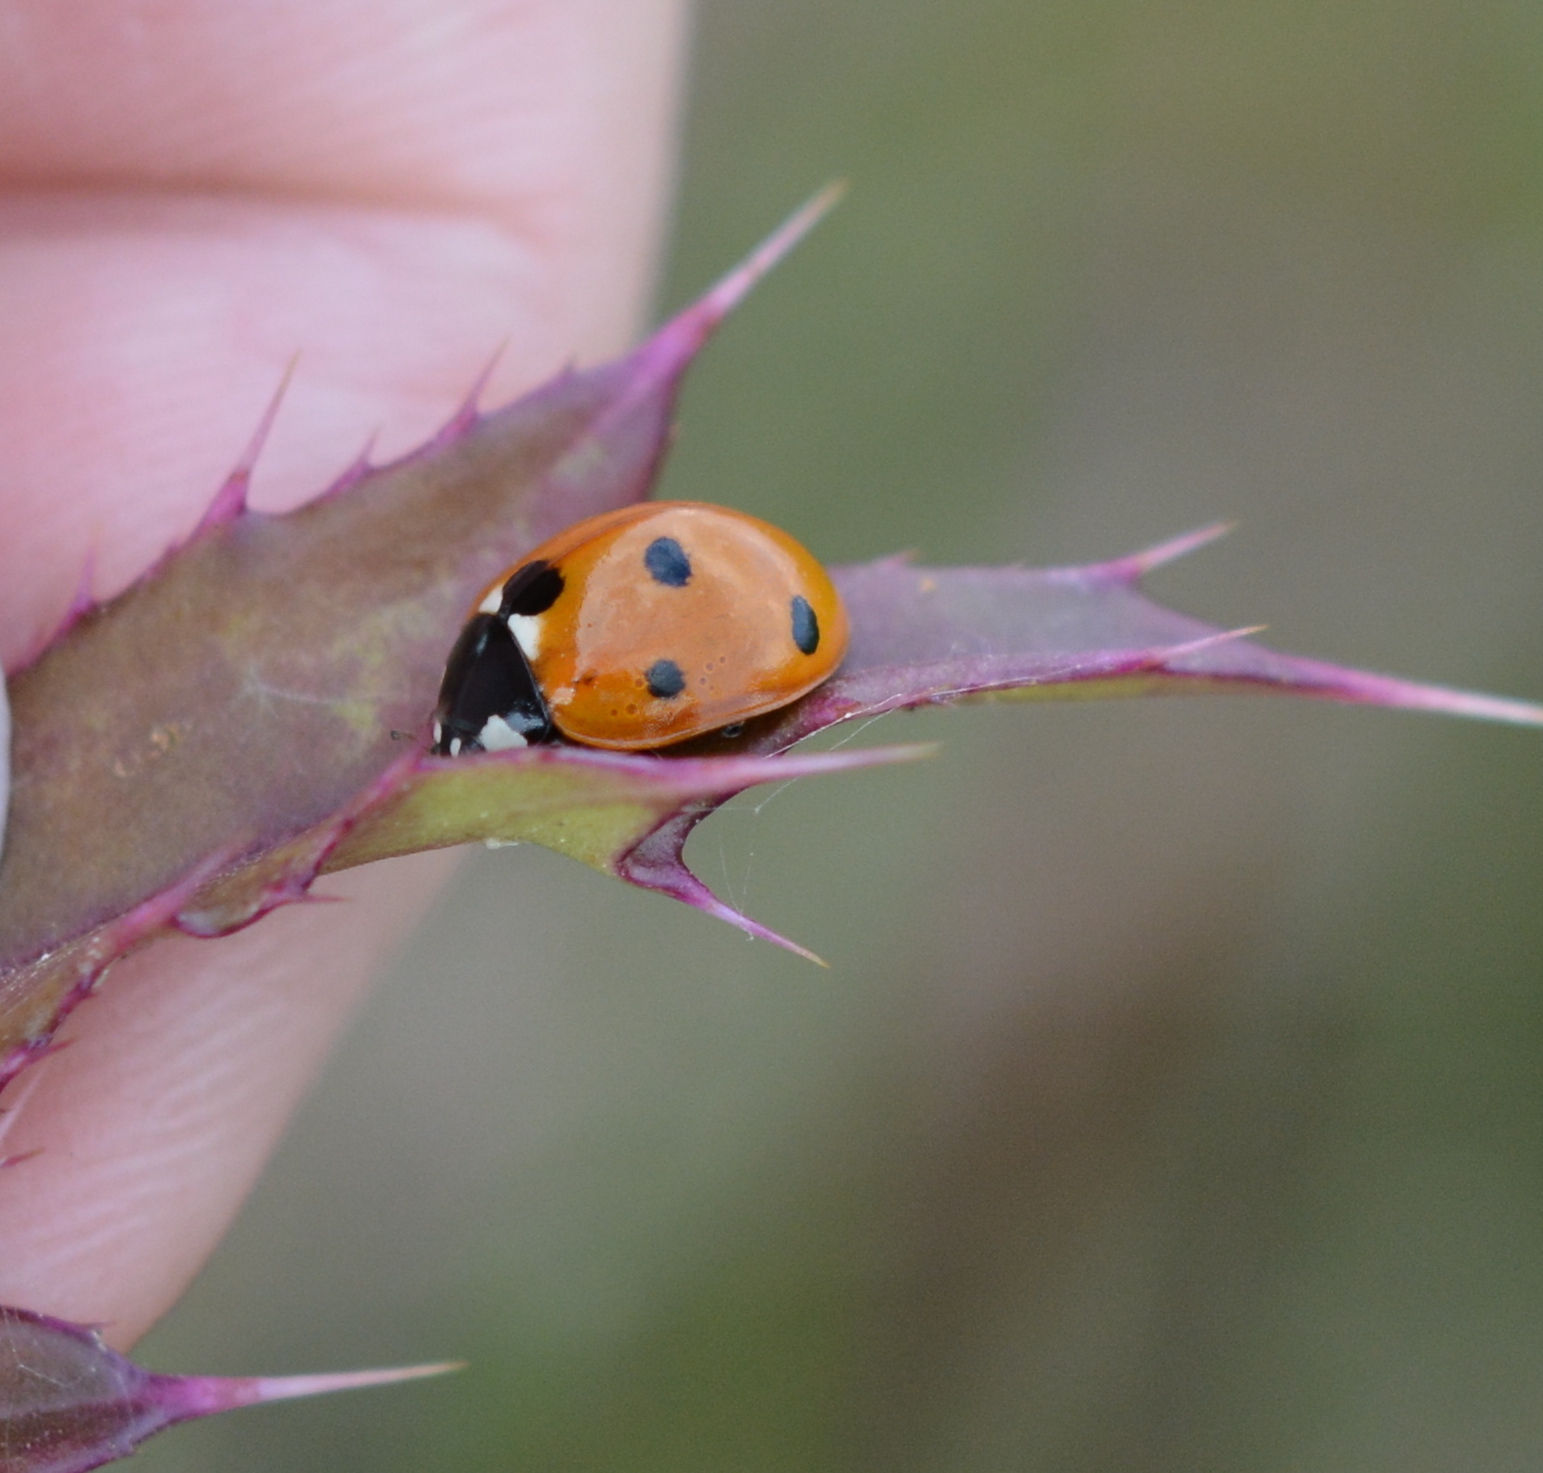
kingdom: Animalia
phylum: Arthropoda
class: Insecta
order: Coleoptera
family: Coccinellidae
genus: Coccinella
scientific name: Coccinella septempunctata
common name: Sevenspotted lady beetle
